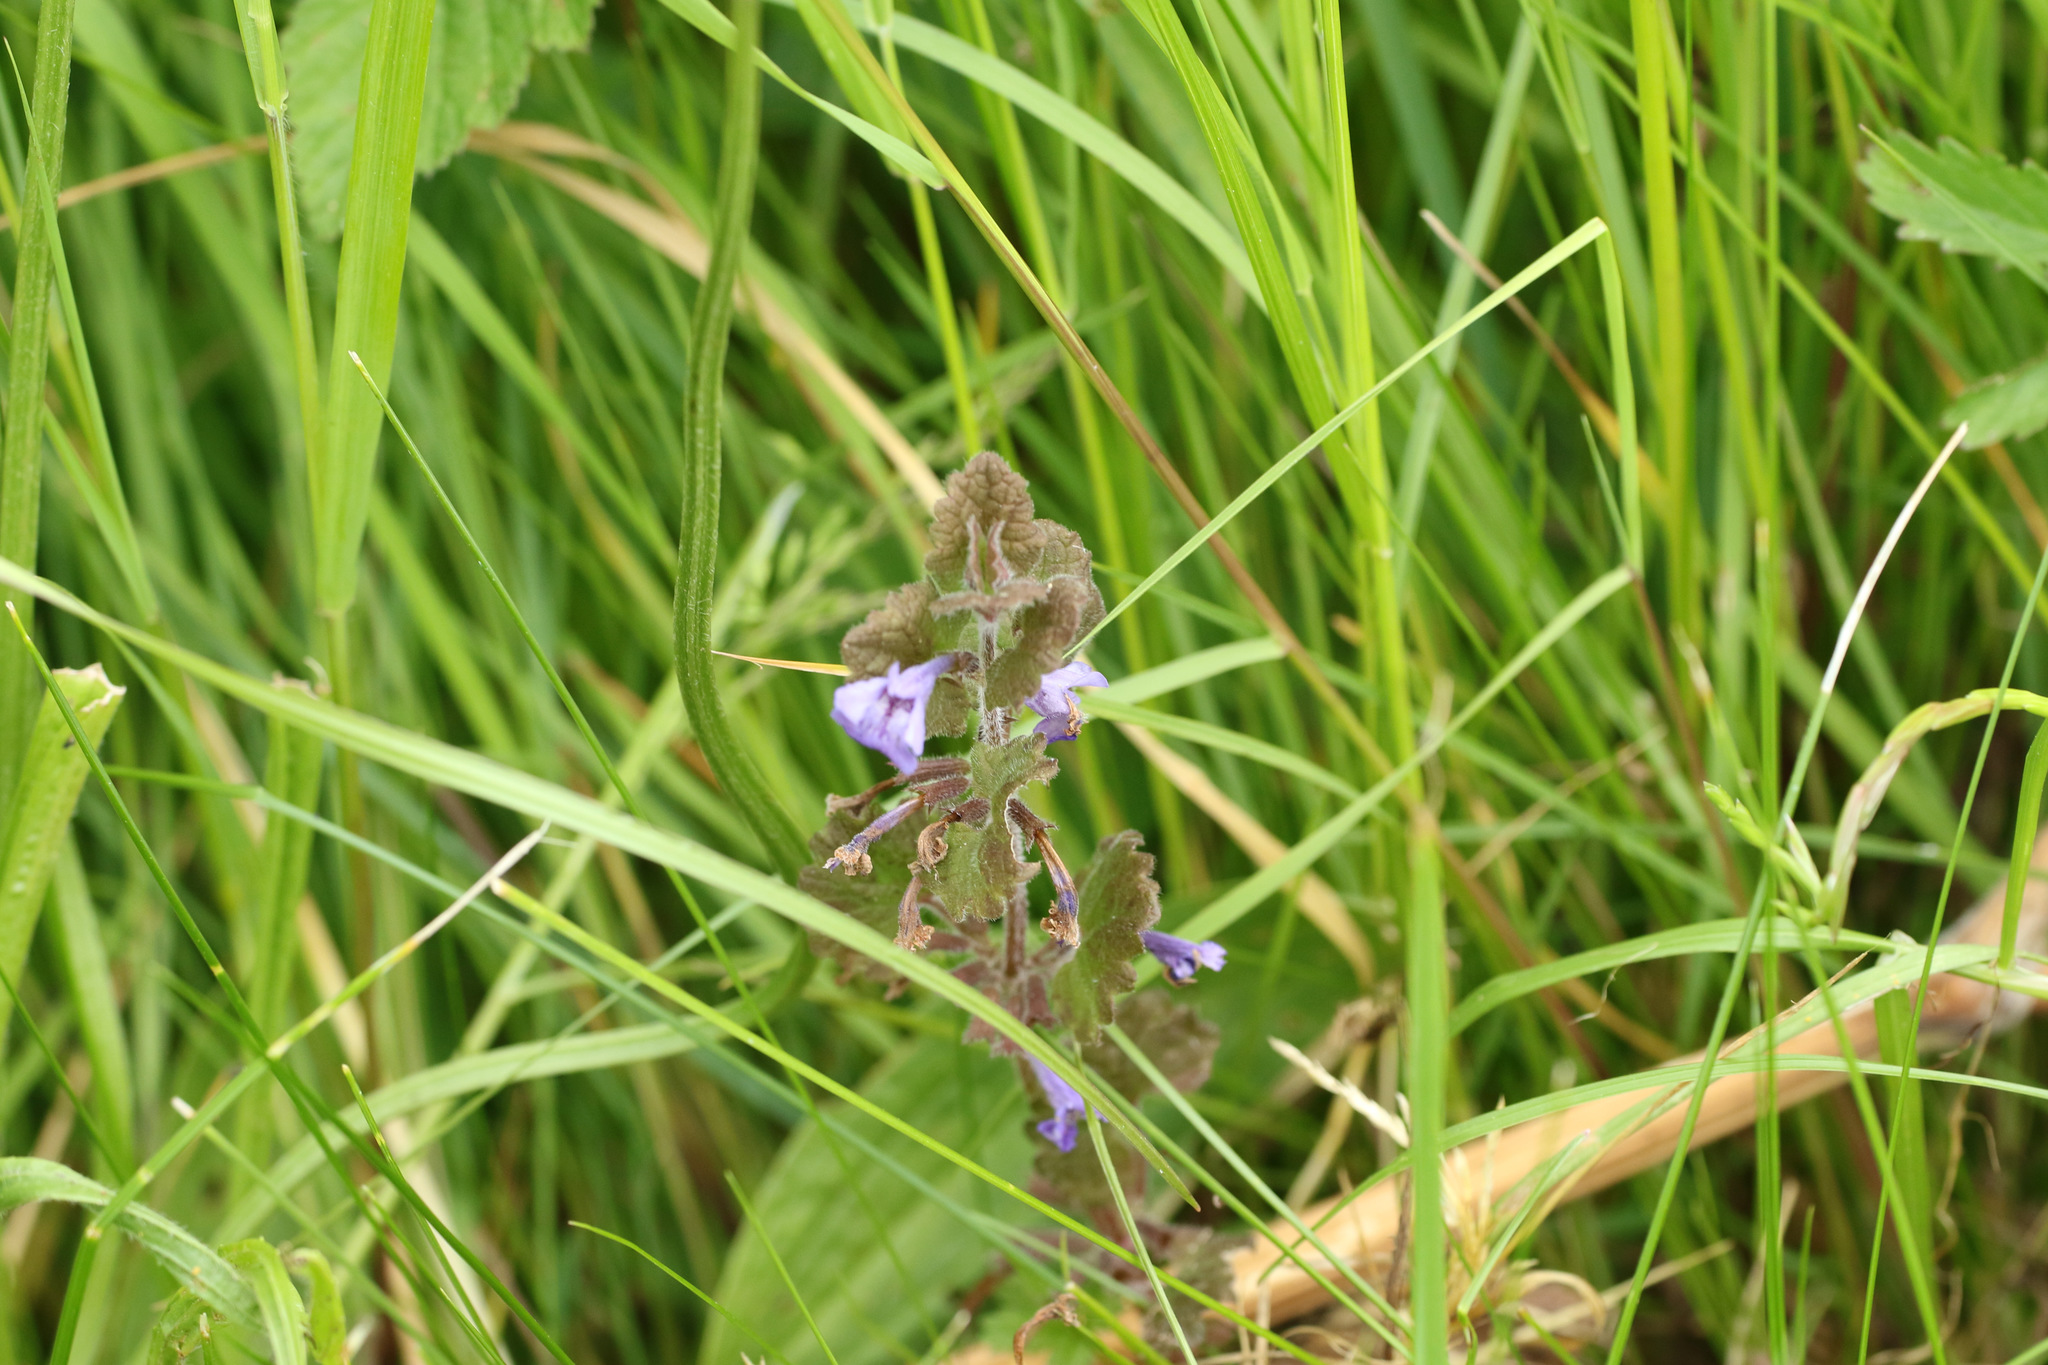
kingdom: Plantae
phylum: Tracheophyta
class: Magnoliopsida
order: Lamiales
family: Lamiaceae
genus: Glechoma
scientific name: Glechoma hederacea
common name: Ground ivy
